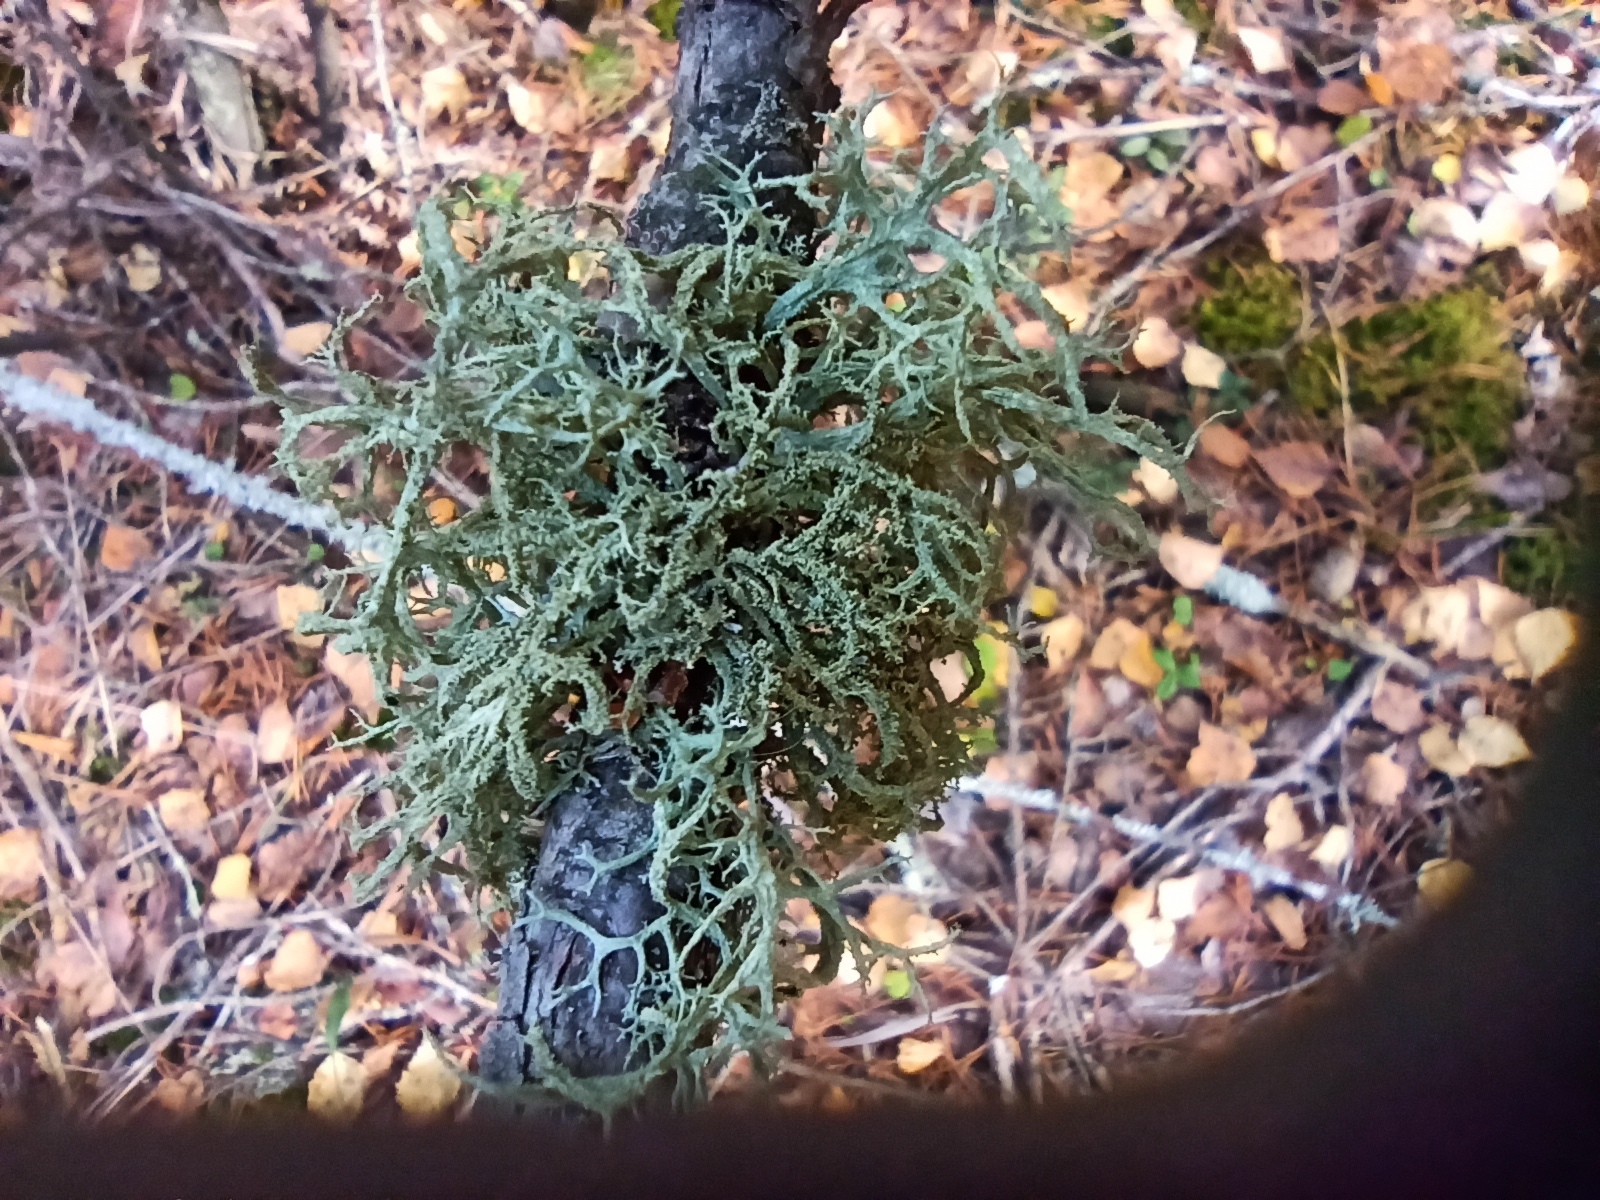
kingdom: Fungi
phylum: Ascomycota
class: Lecanoromycetes
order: Lecanorales
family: Parmeliaceae
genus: Evernia
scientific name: Evernia prunastri
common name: Oak moss
